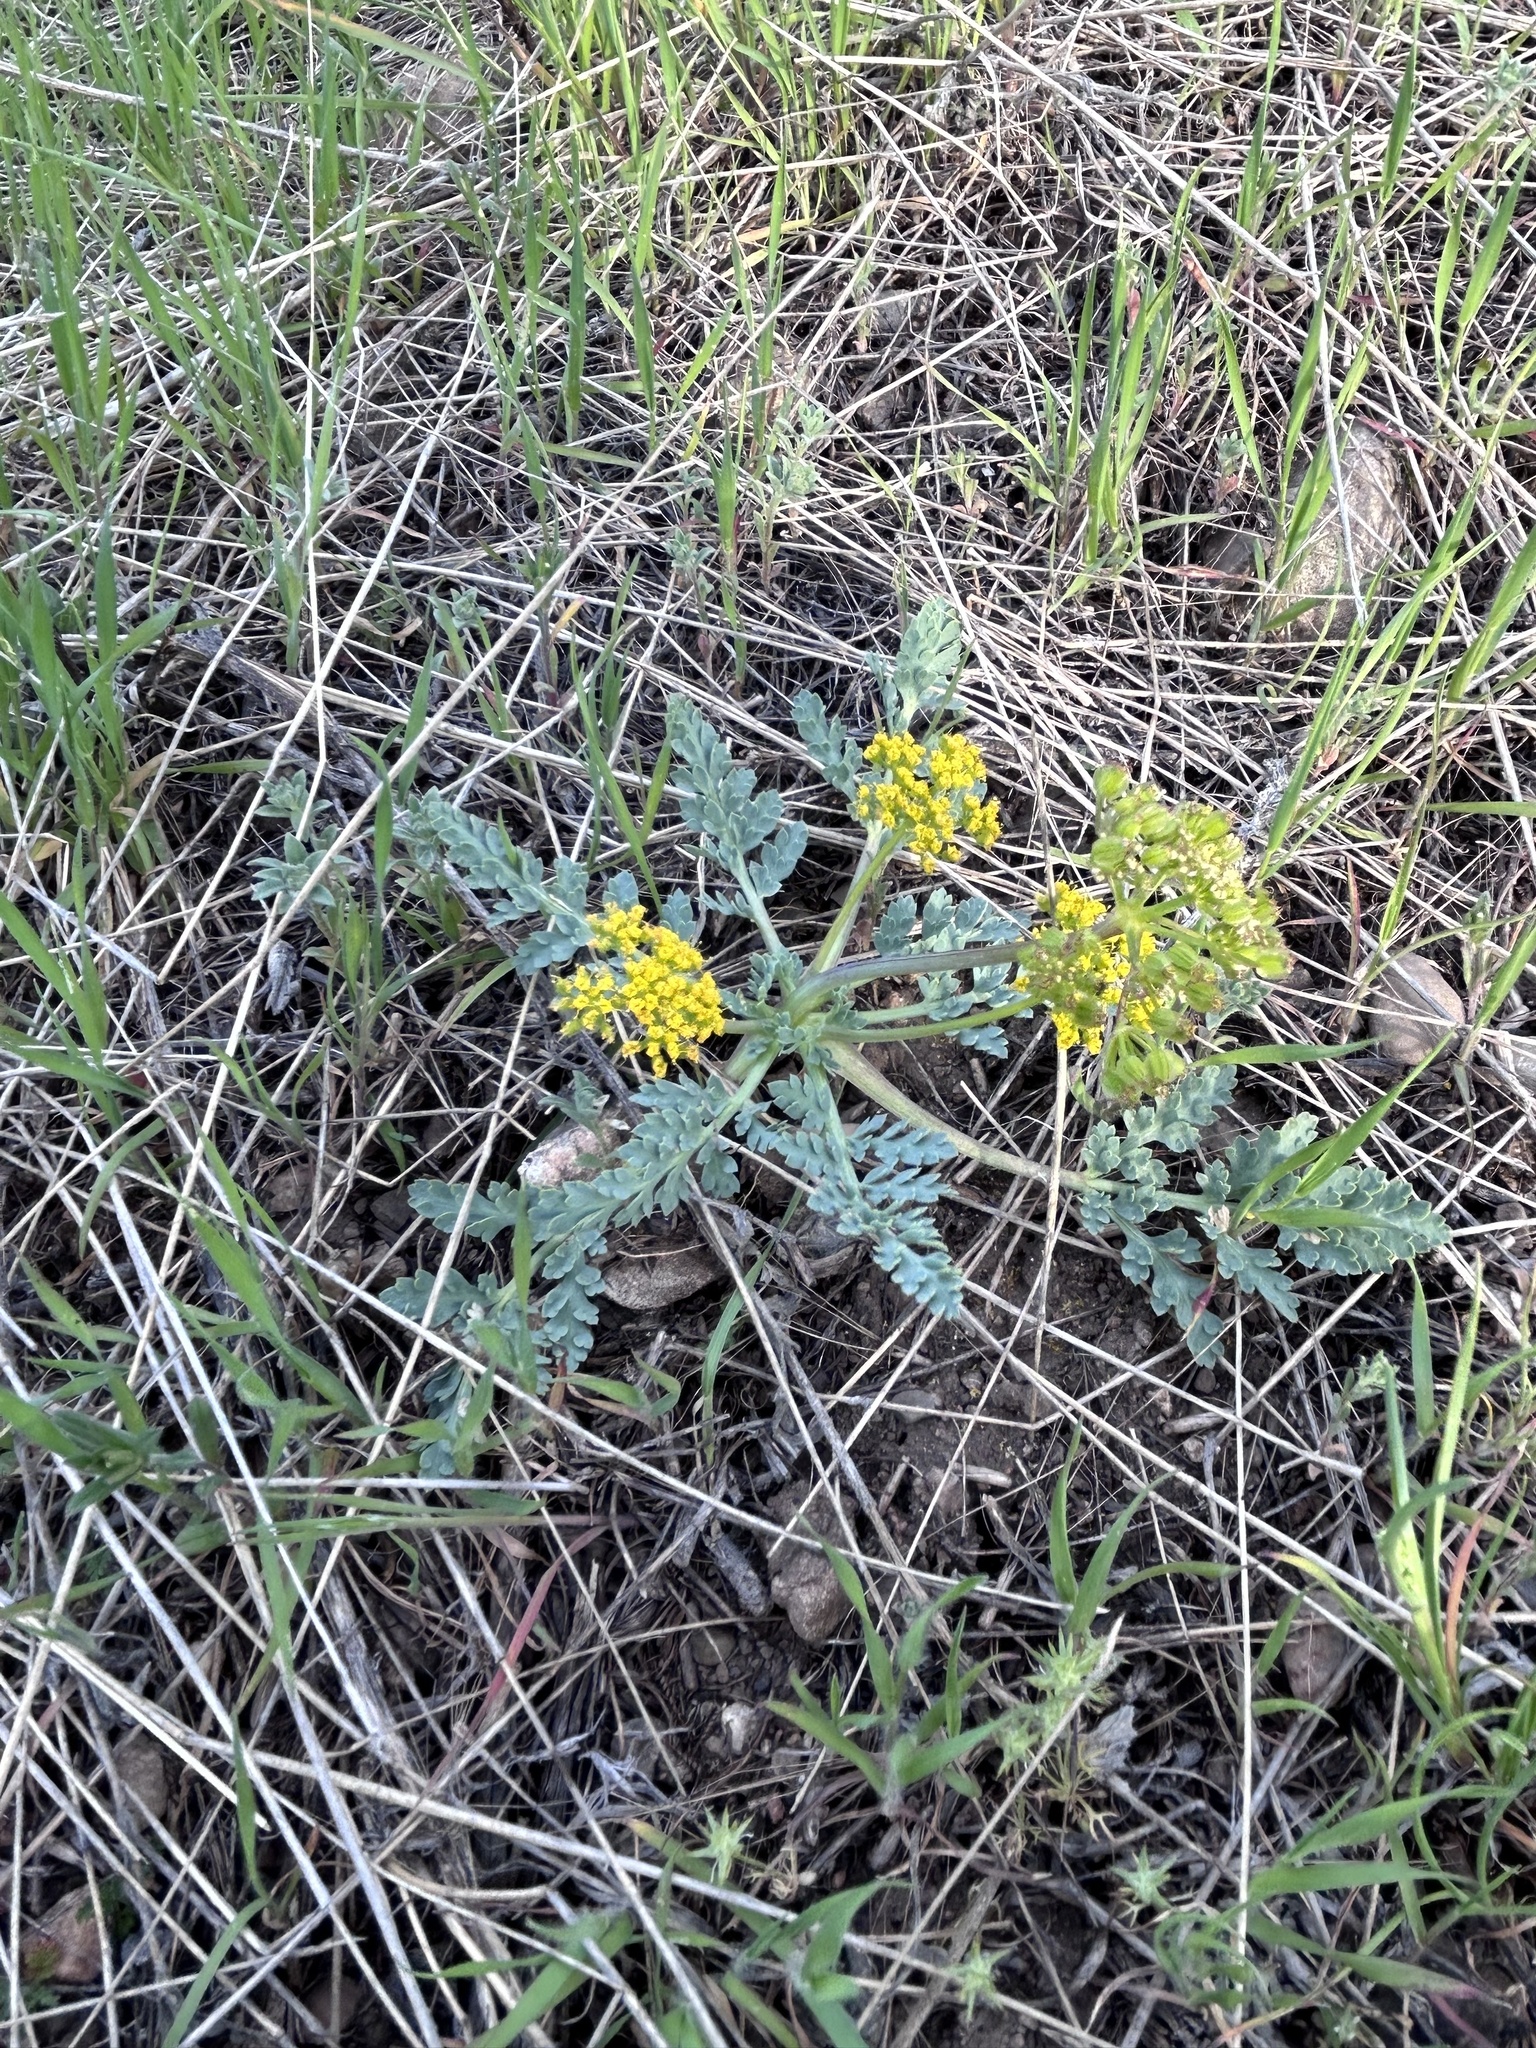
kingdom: Plantae
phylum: Tracheophyta
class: Magnoliopsida
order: Apiales
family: Apiaceae
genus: Aulospermum
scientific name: Aulospermum longipes
